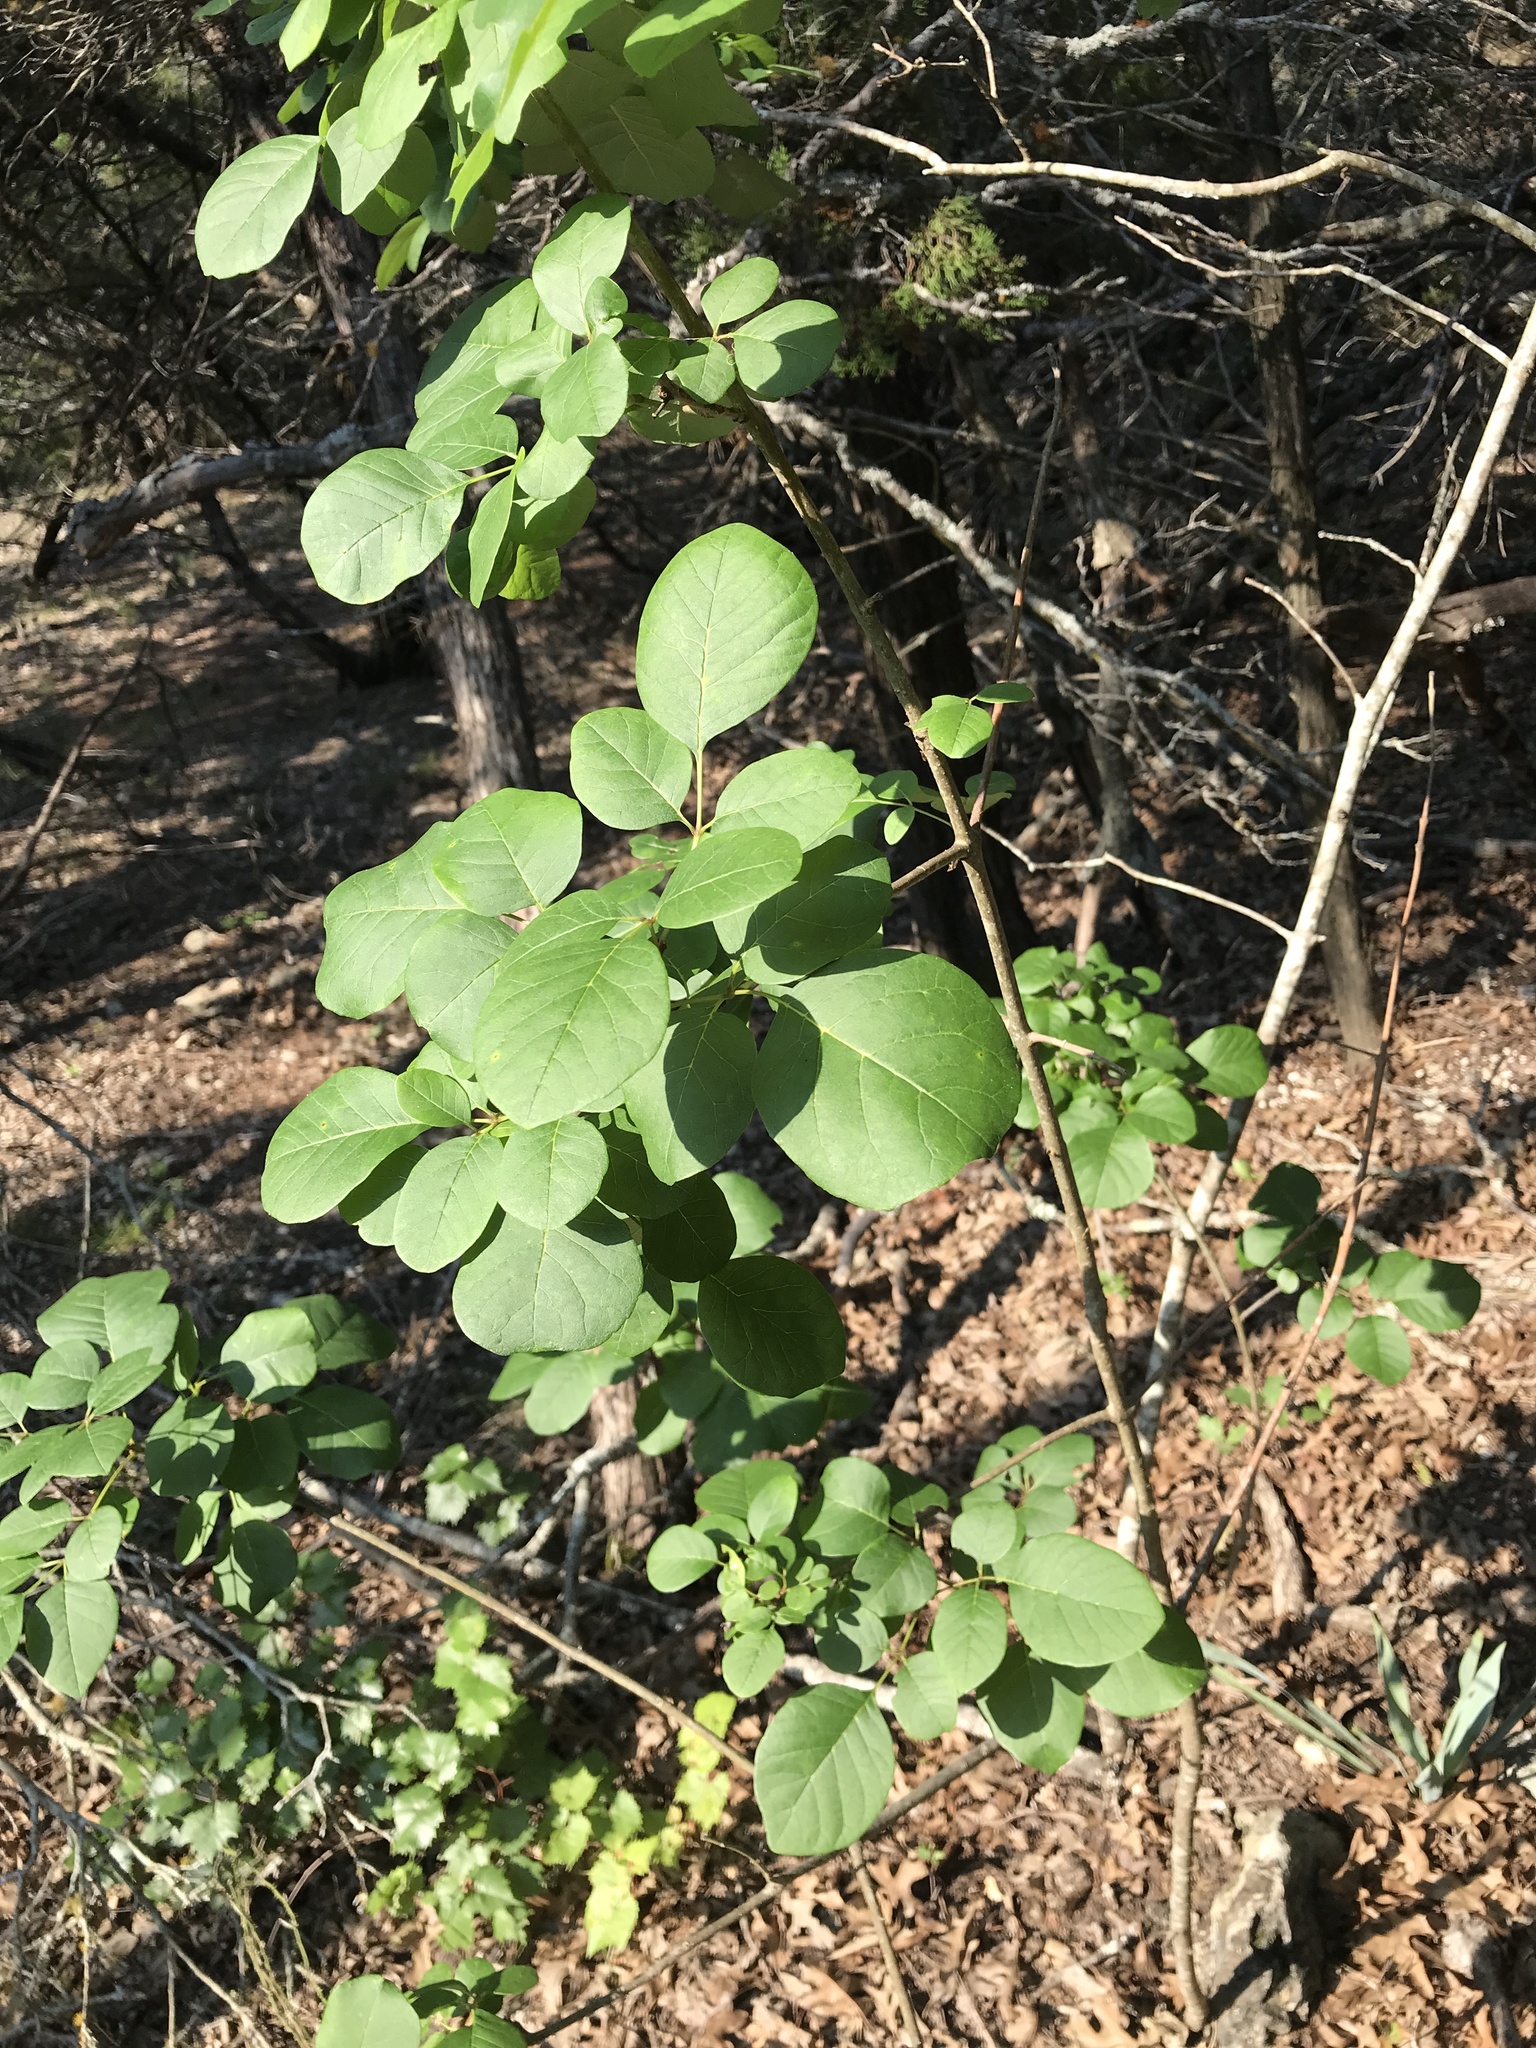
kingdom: Plantae
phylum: Tracheophyta
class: Magnoliopsida
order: Lamiales
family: Oleaceae
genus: Fraxinus
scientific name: Fraxinus albicans
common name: Texas ash
